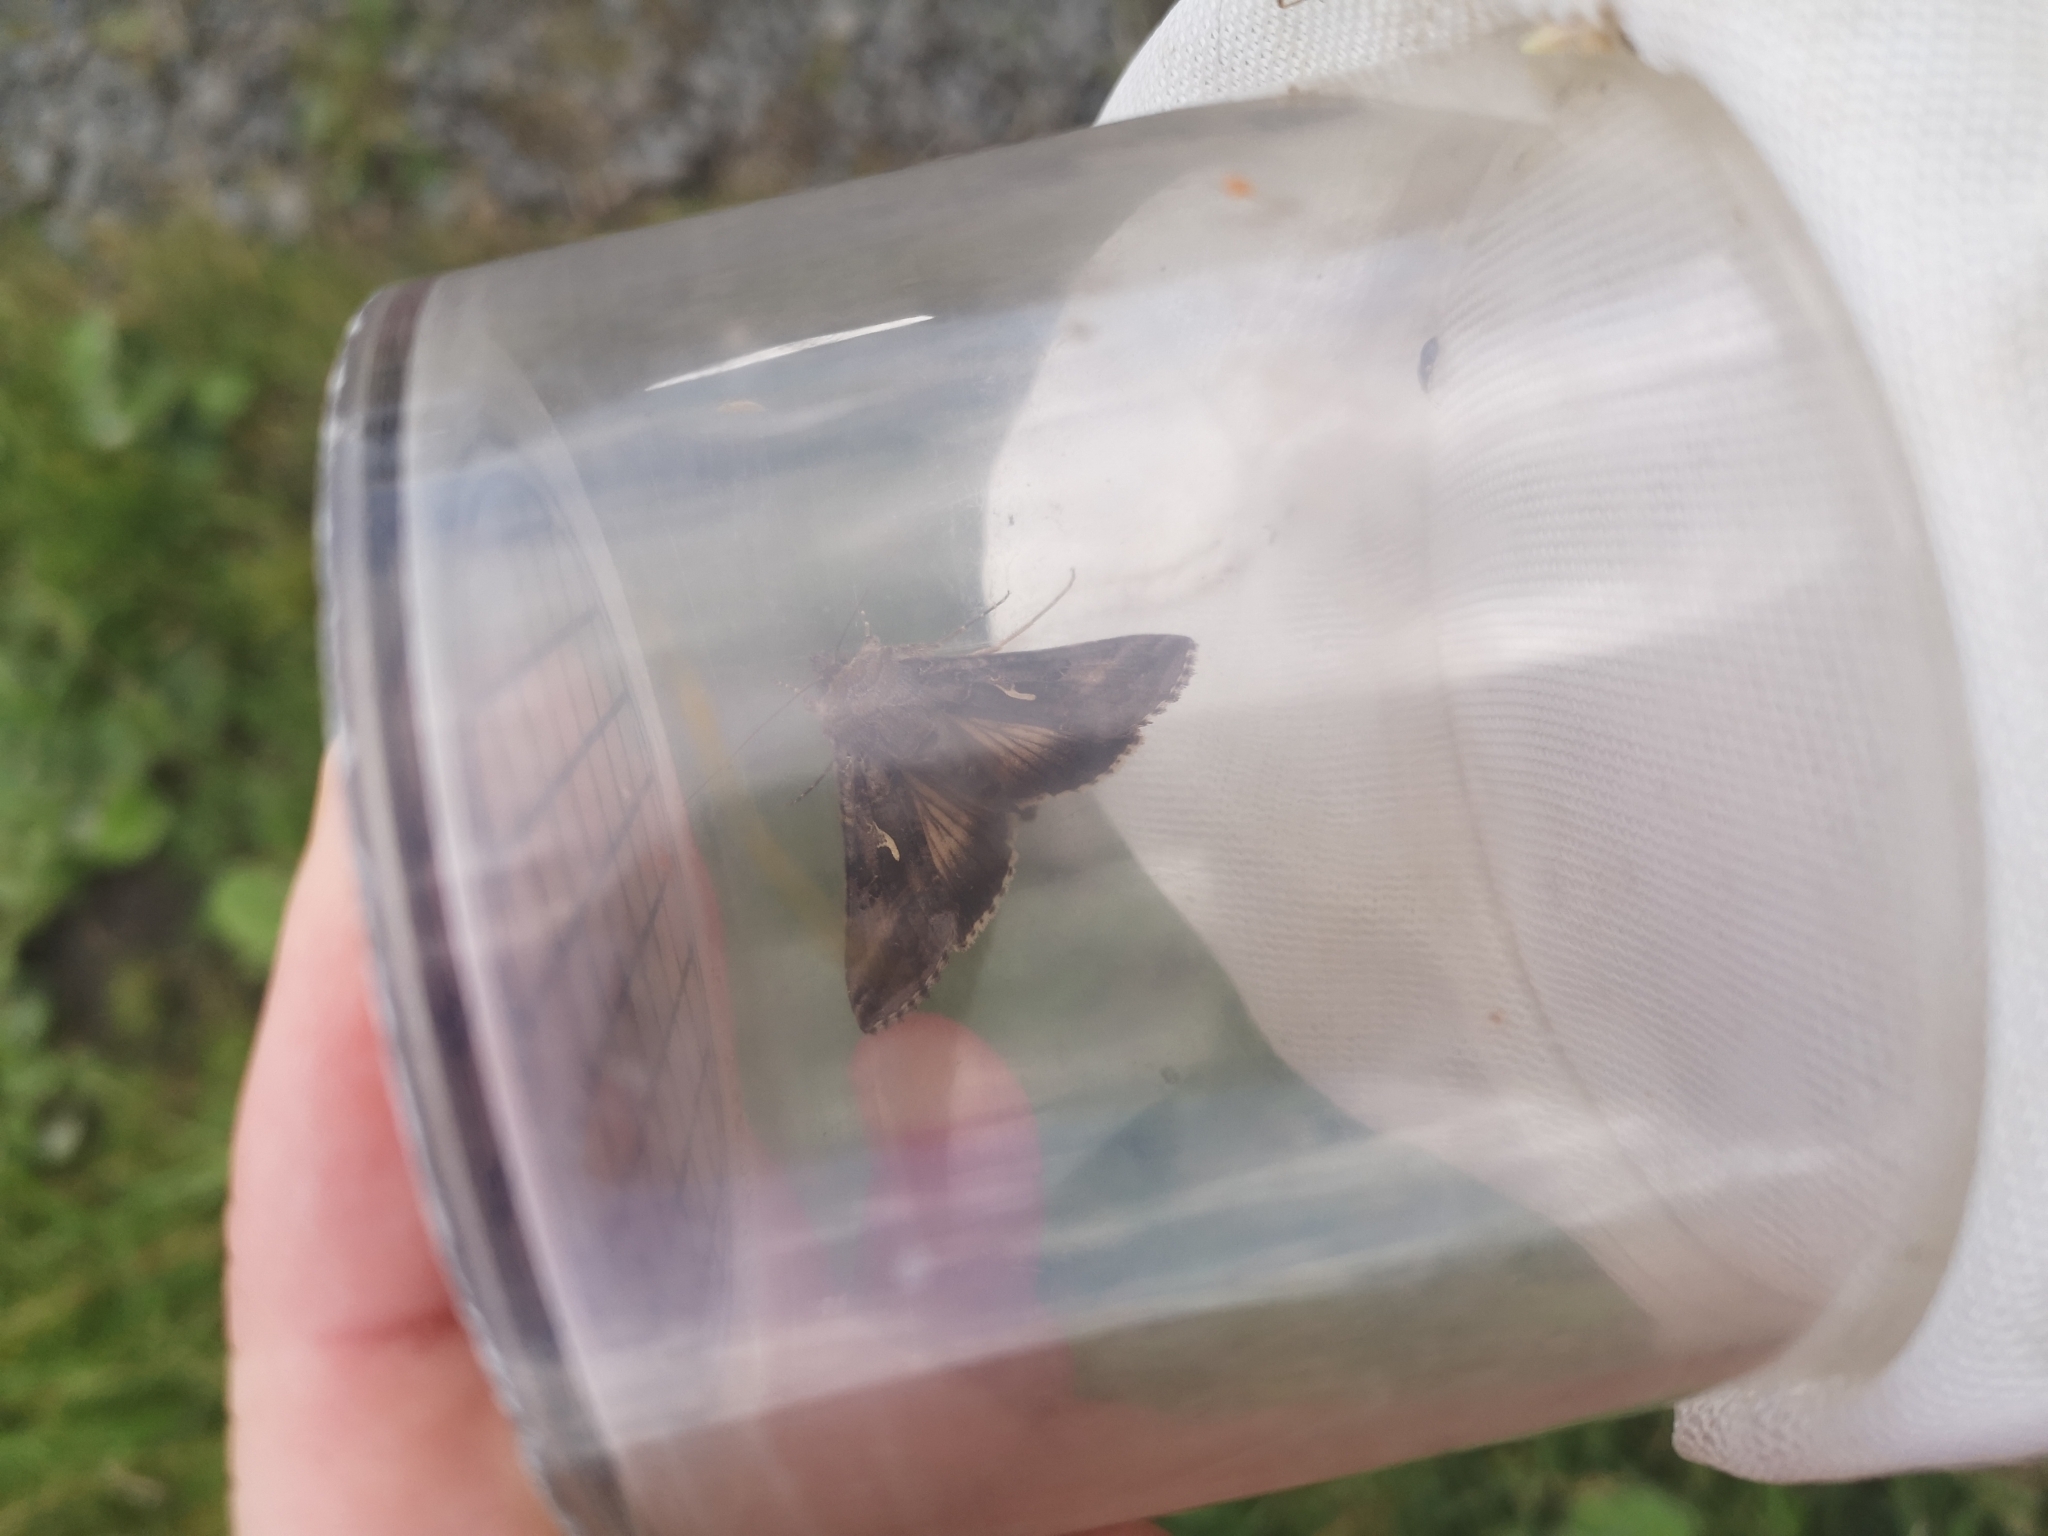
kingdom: Animalia
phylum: Arthropoda
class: Insecta
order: Lepidoptera
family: Noctuidae
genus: Autographa
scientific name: Autographa gamma
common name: Silver y
